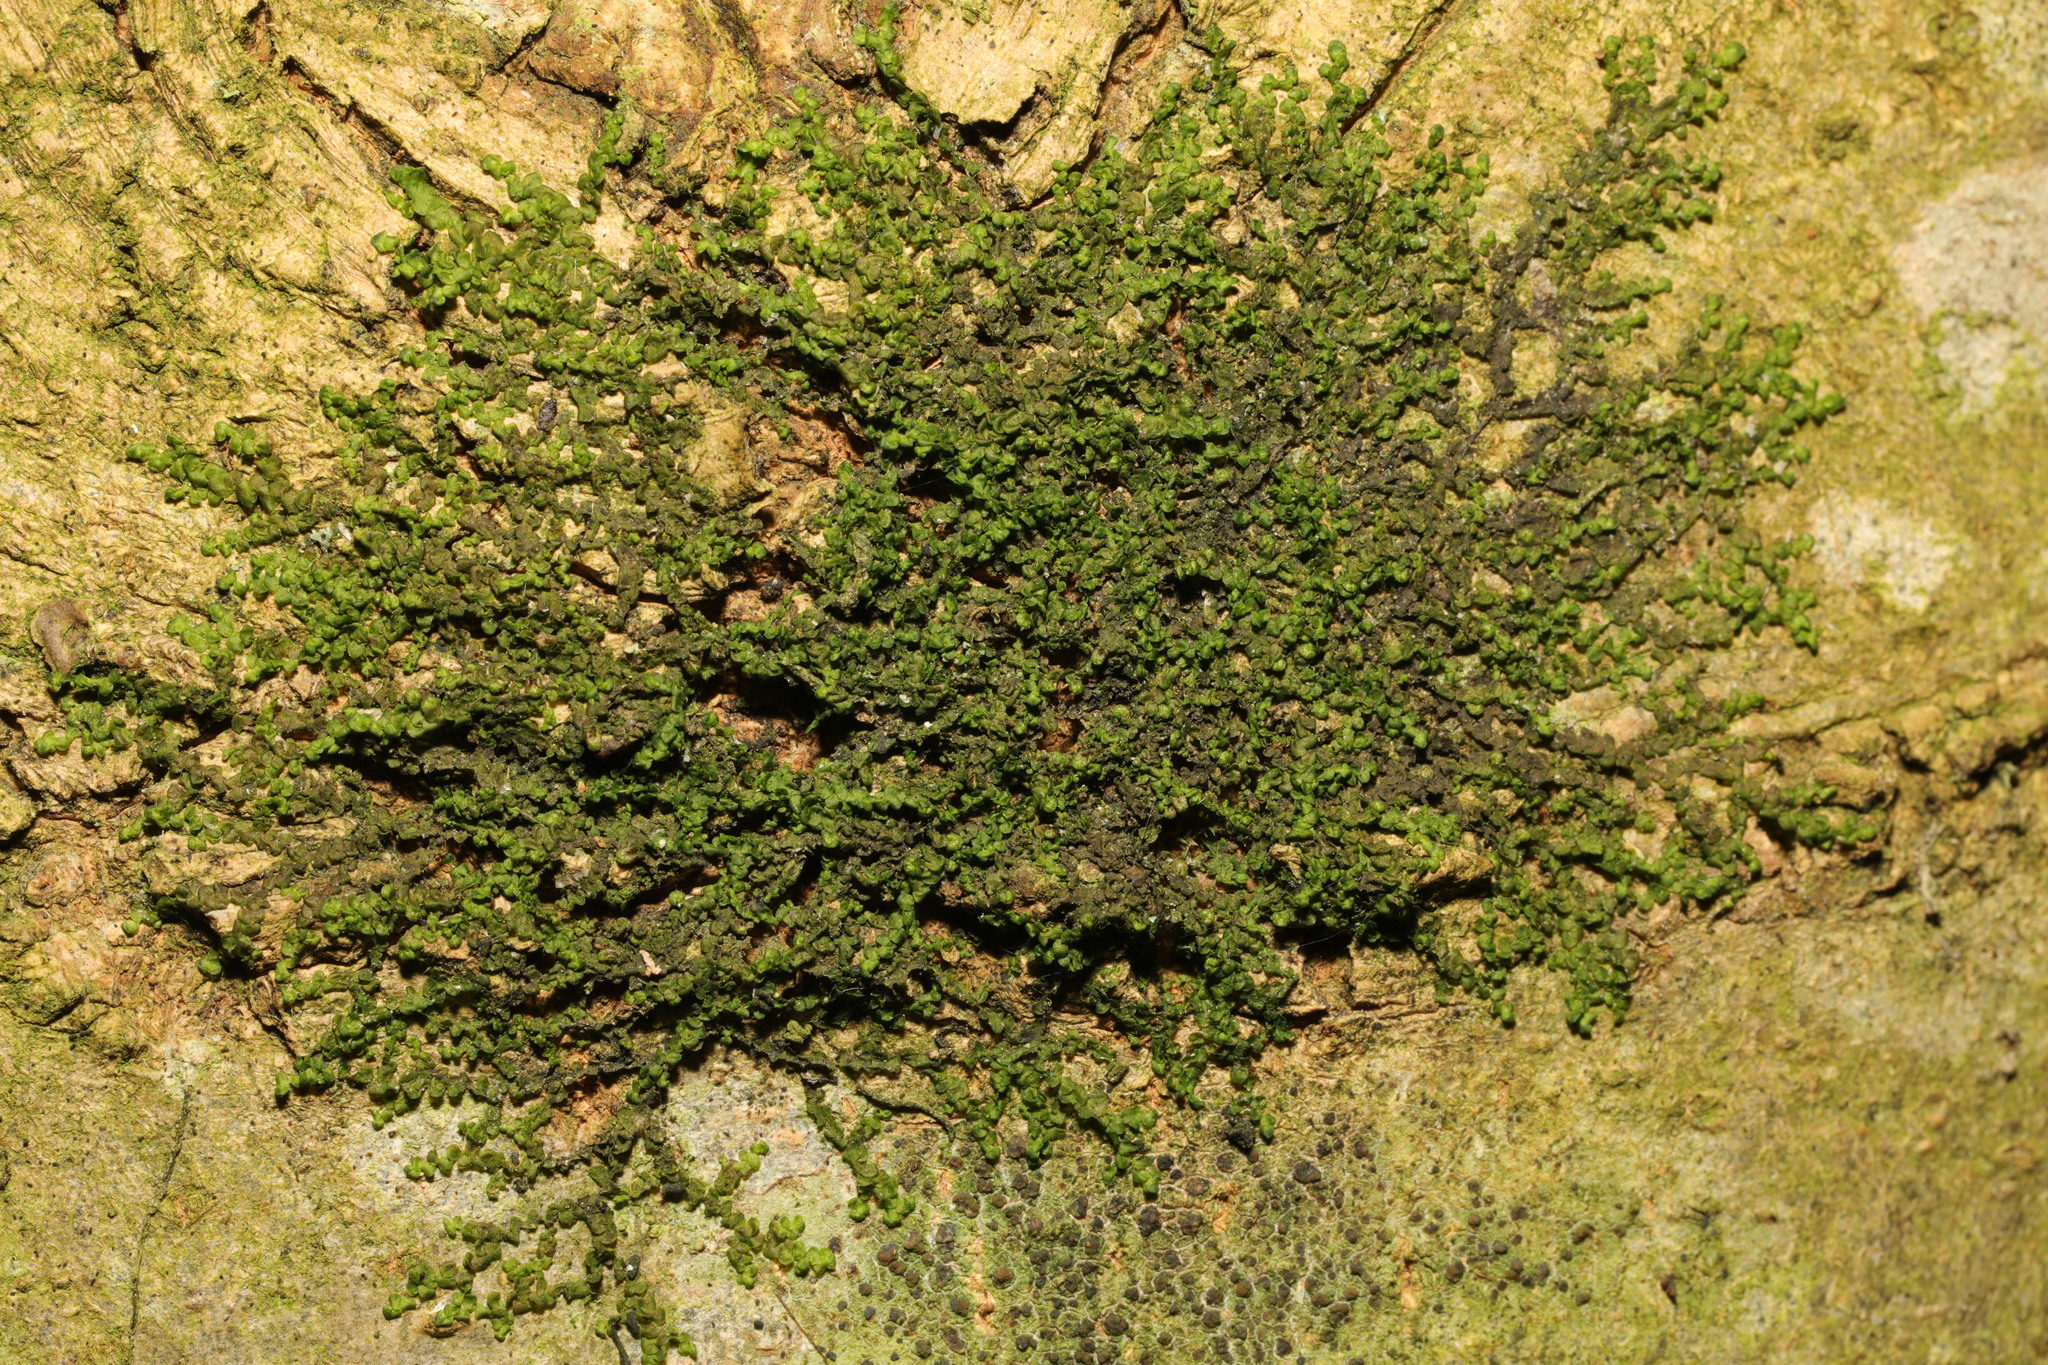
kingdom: Plantae
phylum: Marchantiophyta
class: Jungermanniopsida
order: Porellales
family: Frullaniaceae
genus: Frullania
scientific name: Frullania dilatata
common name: Dilated scalewort
